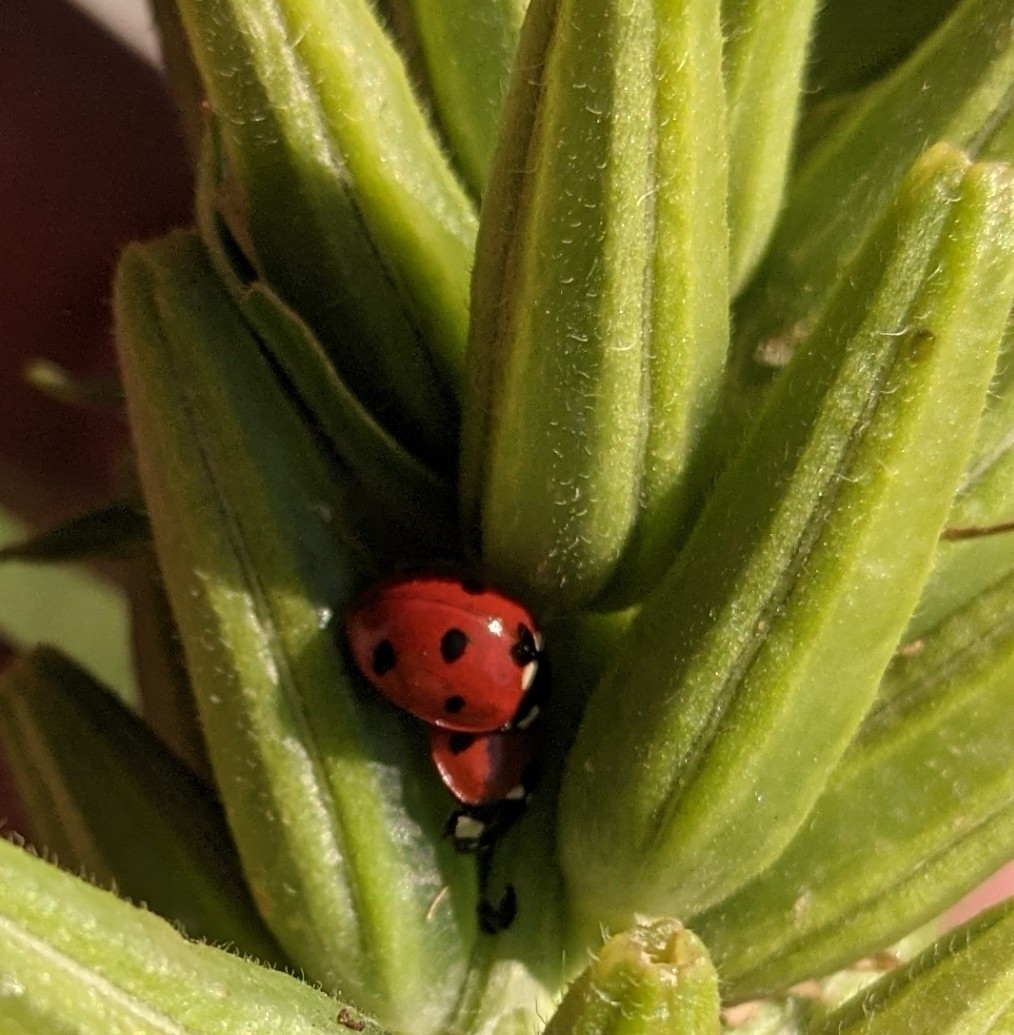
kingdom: Animalia
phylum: Arthropoda
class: Insecta
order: Coleoptera
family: Coccinellidae
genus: Coccinella
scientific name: Coccinella septempunctata
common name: Sevenspotted lady beetle
